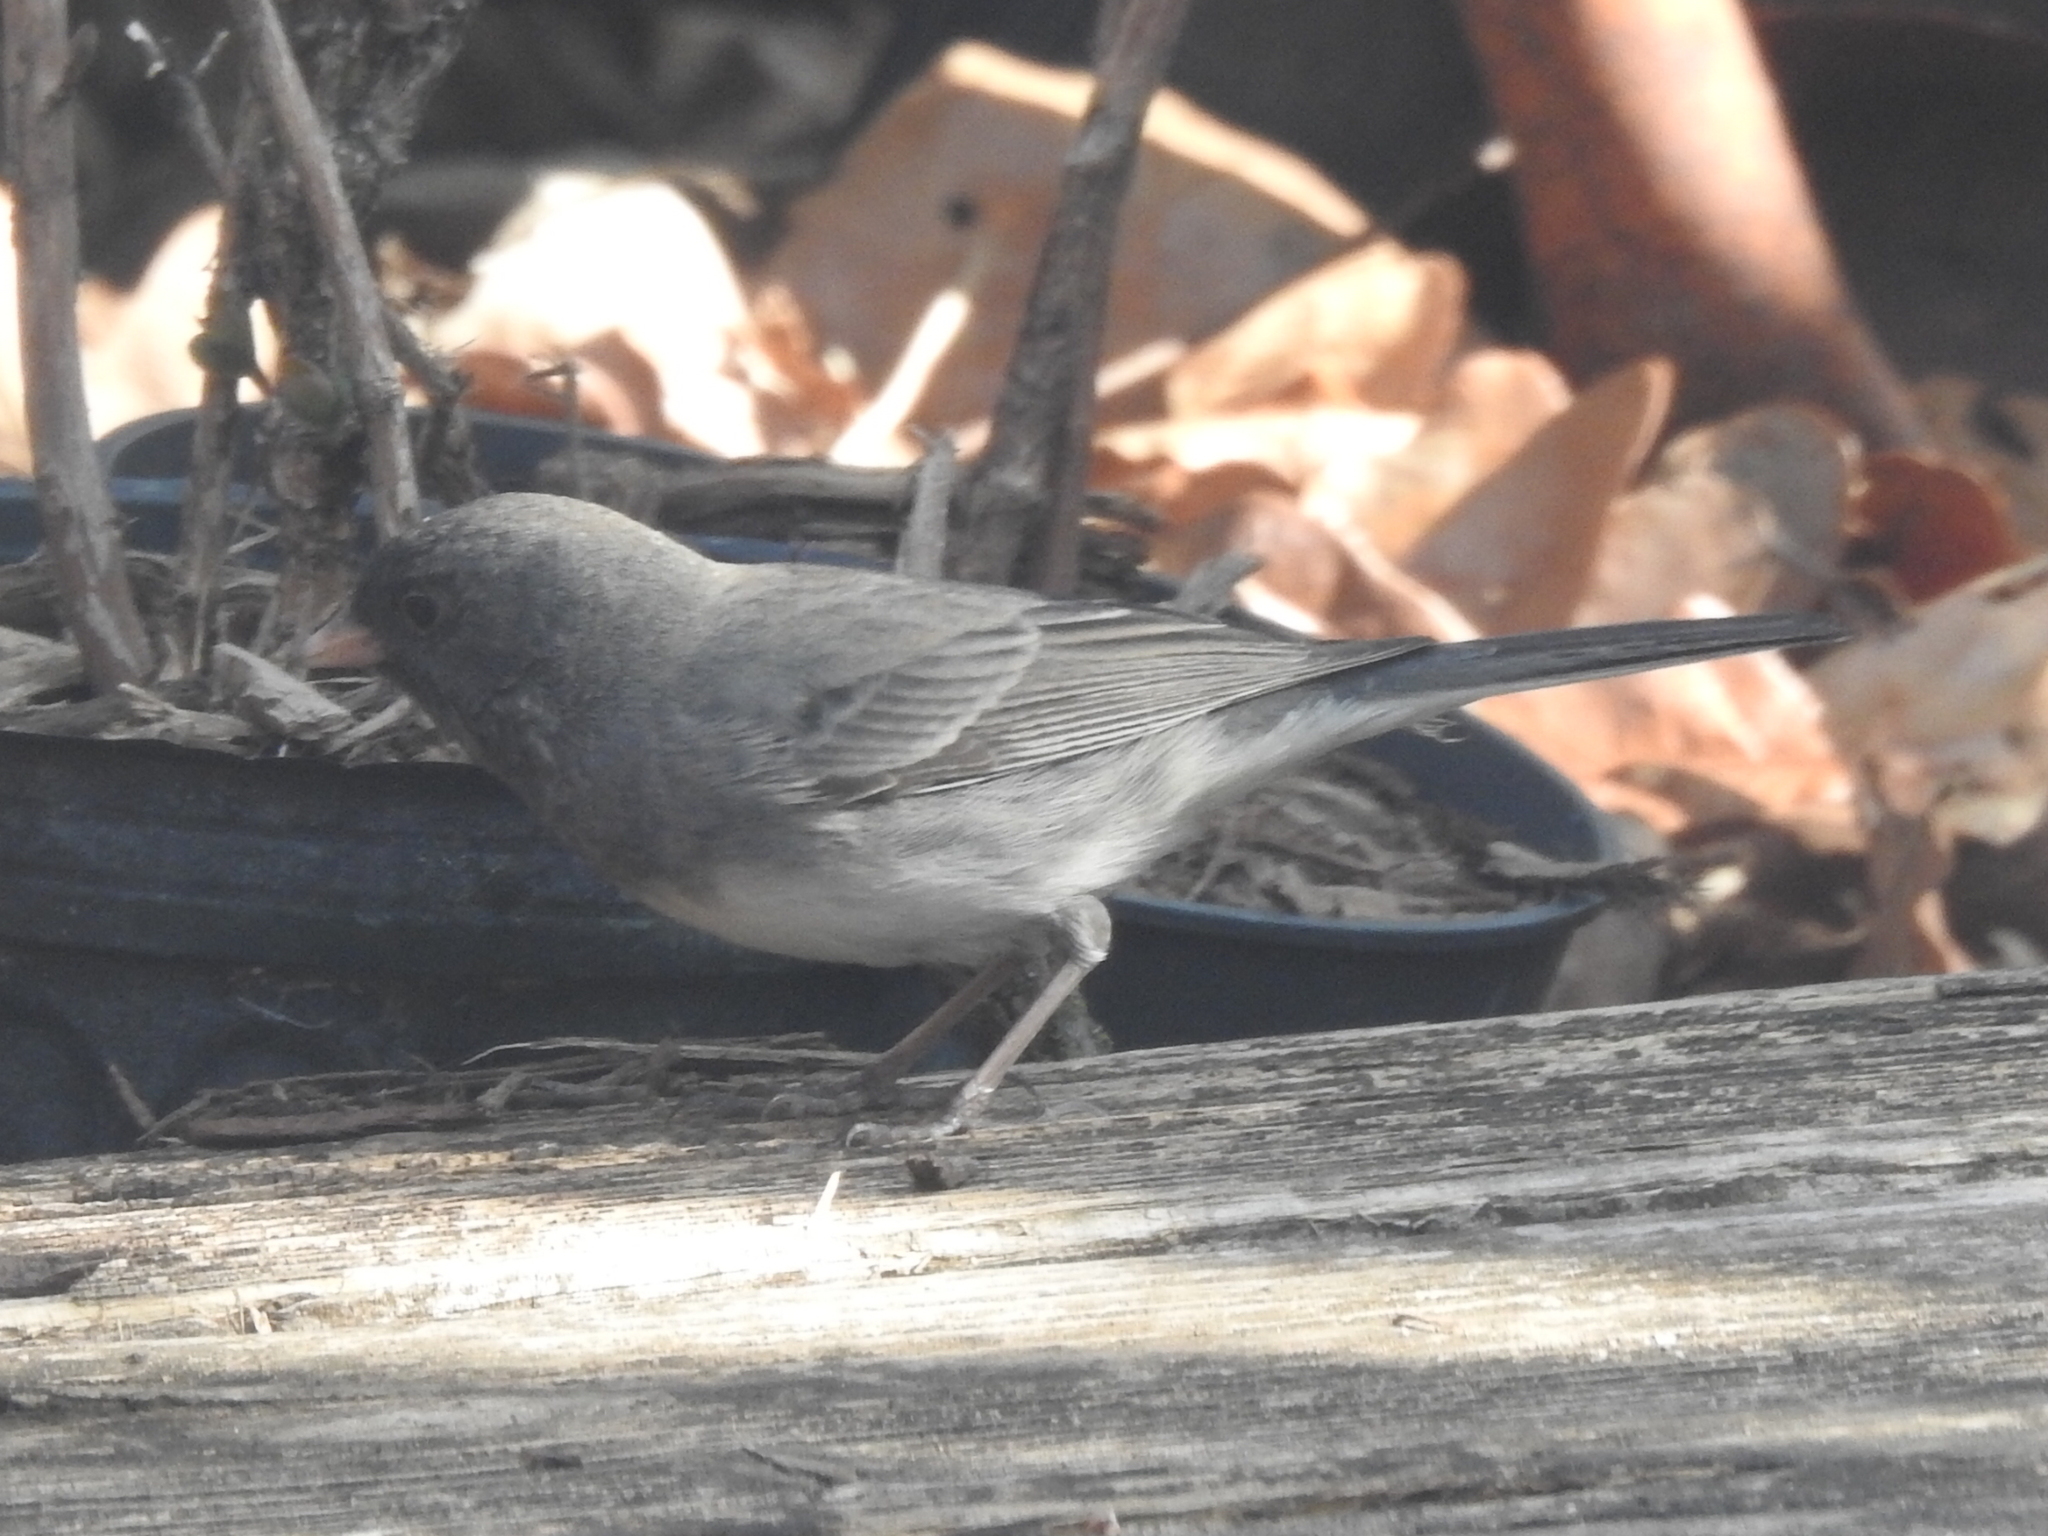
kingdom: Animalia
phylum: Chordata
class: Aves
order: Passeriformes
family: Passerellidae
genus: Junco
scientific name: Junco hyemalis
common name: Dark-eyed junco
